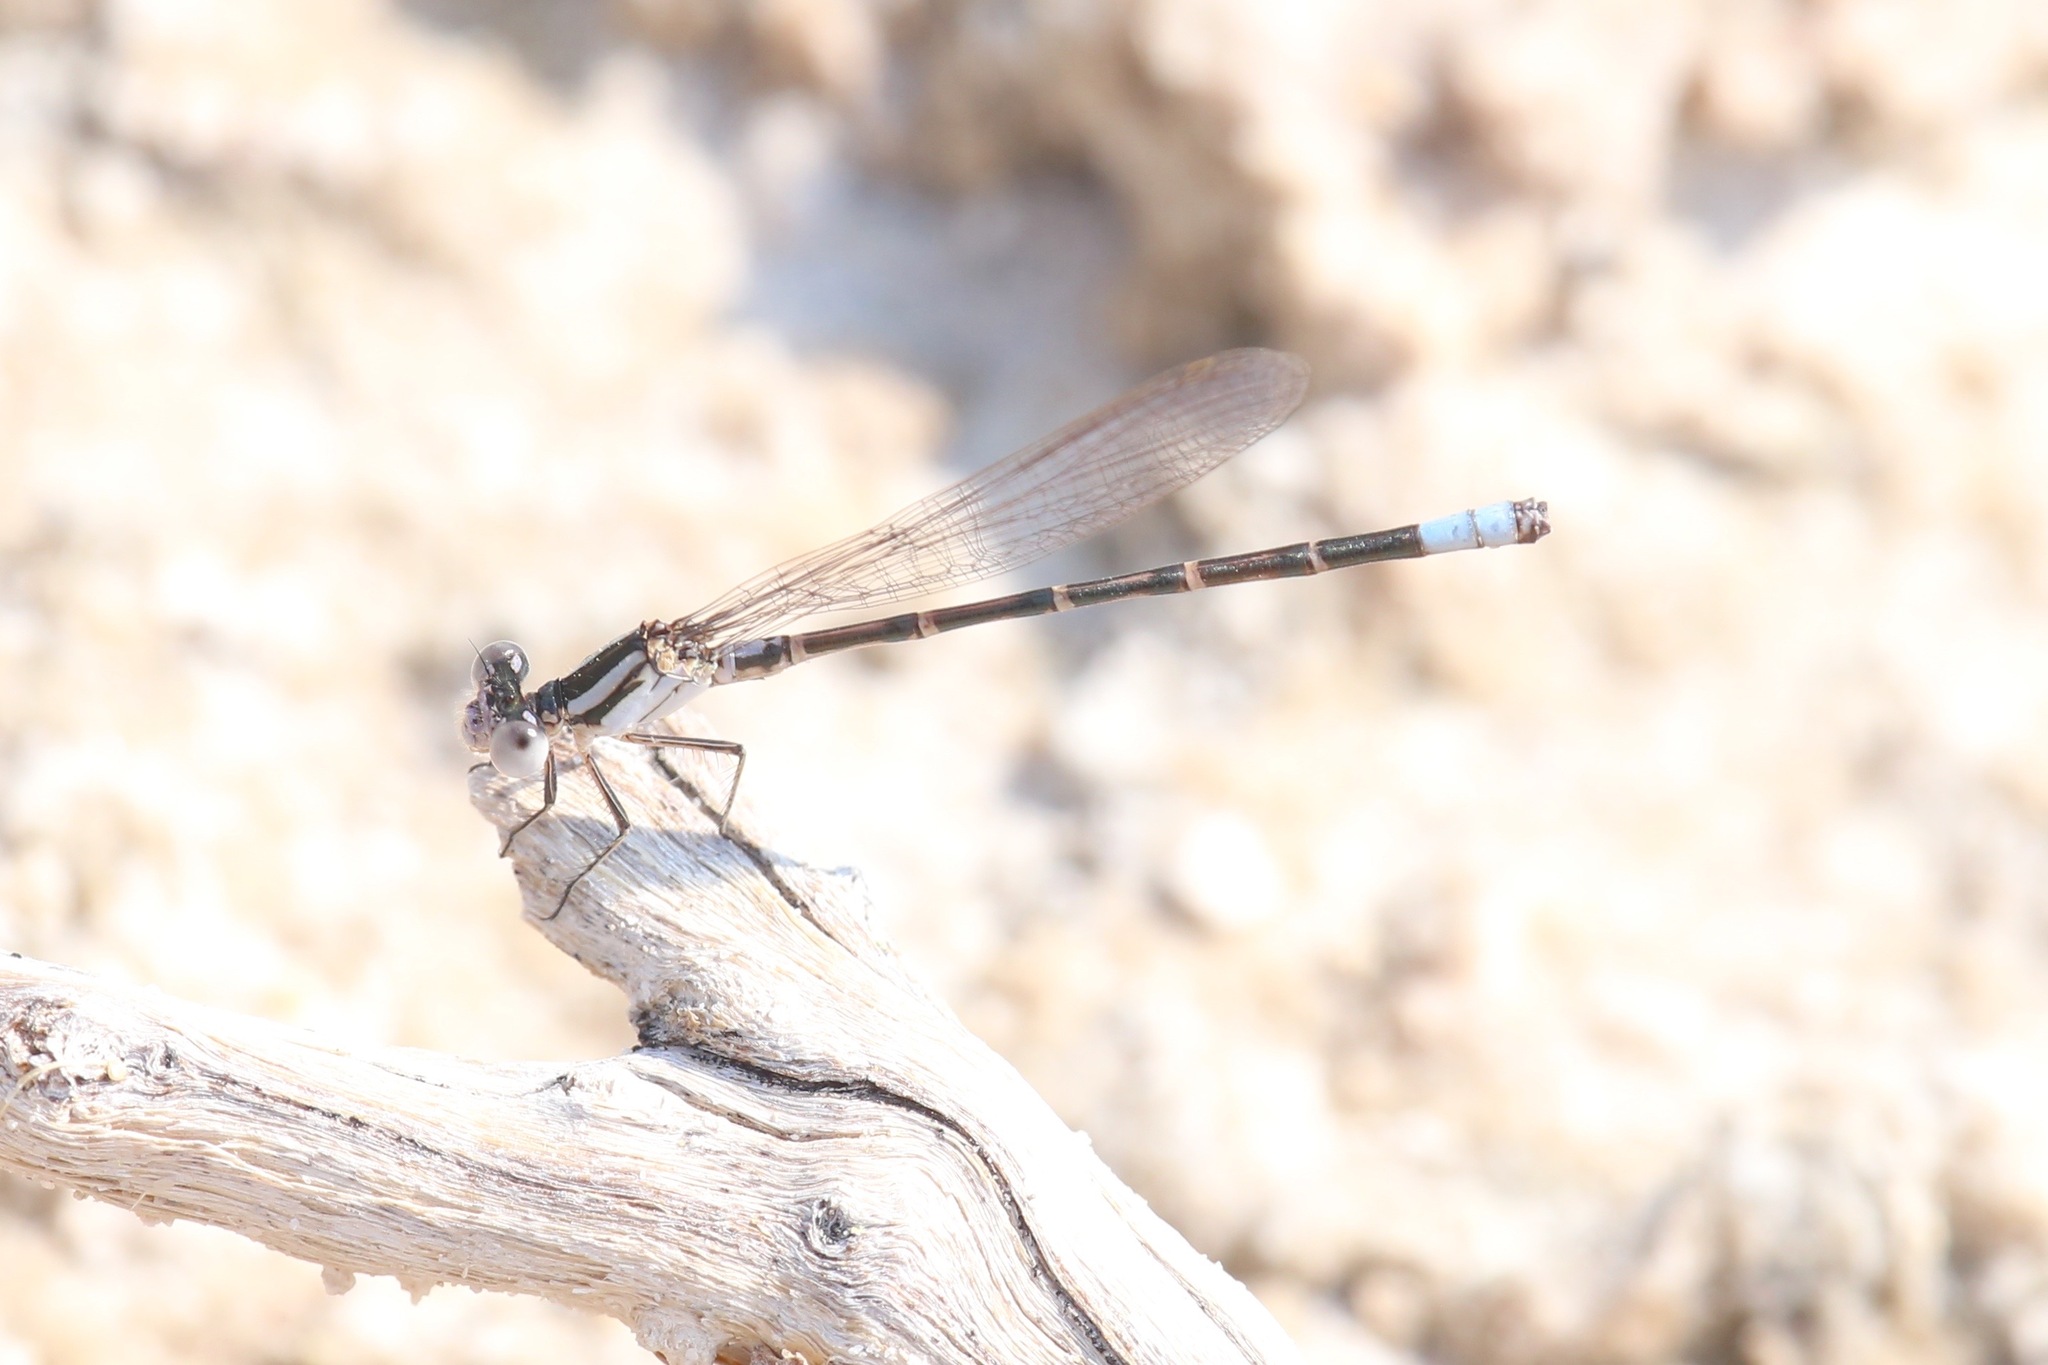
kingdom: Animalia
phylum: Arthropoda
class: Insecta
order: Odonata
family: Coenagrionidae
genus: Argia
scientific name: Argia alberta
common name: Paiute dancer
